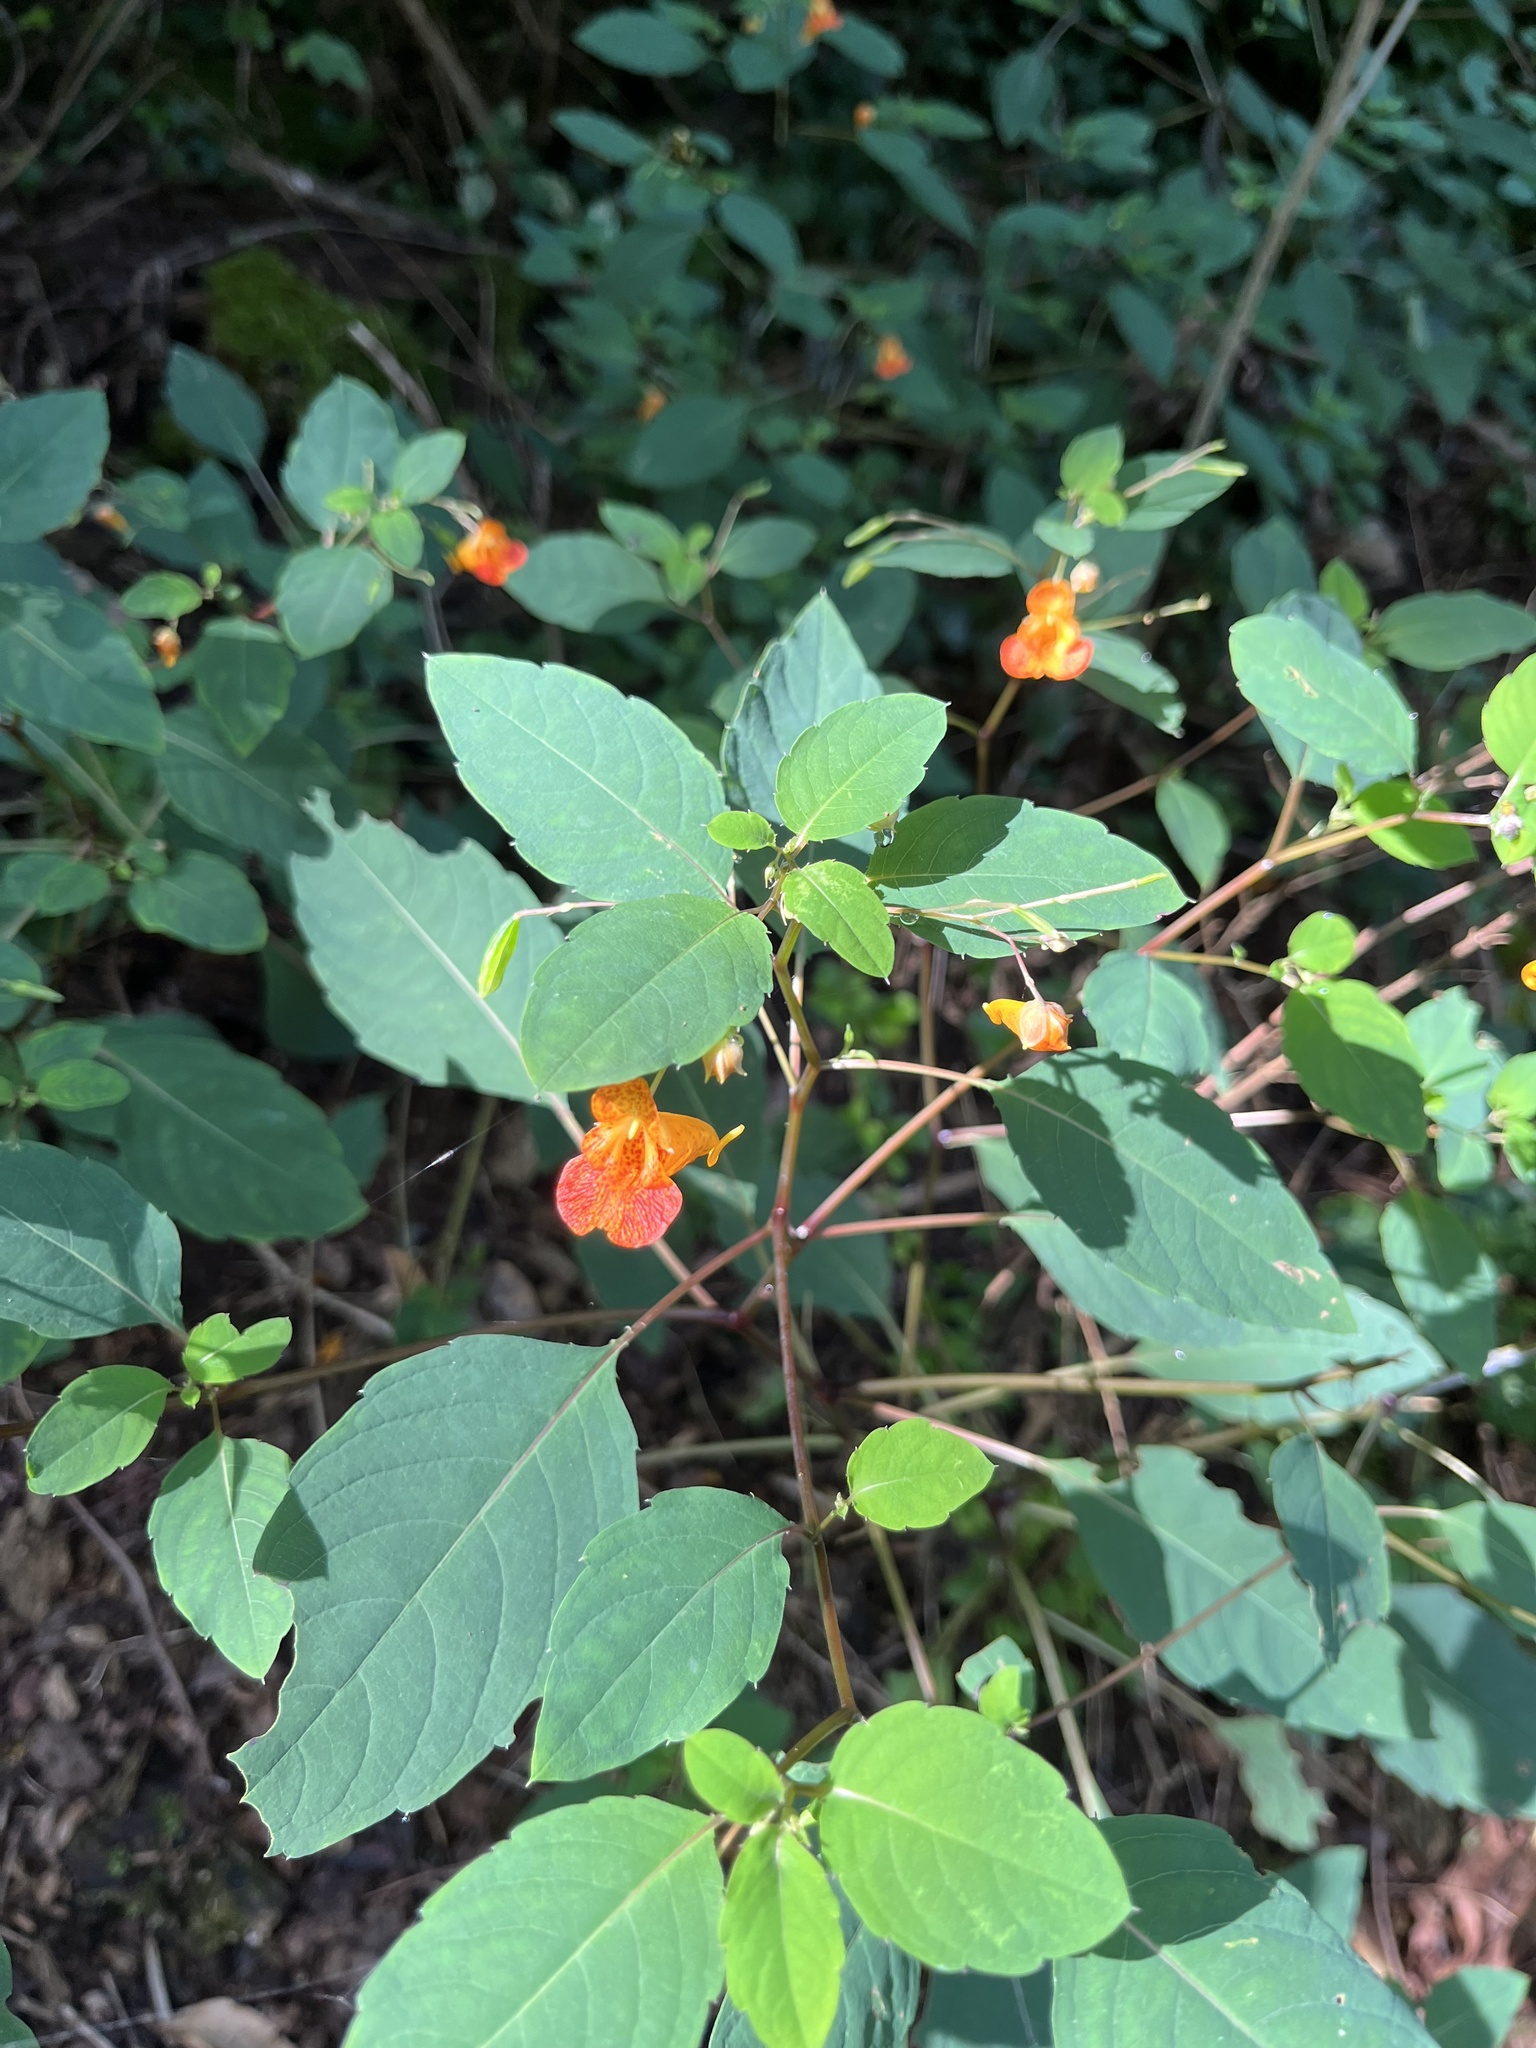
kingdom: Plantae
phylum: Tracheophyta
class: Magnoliopsida
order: Ericales
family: Balsaminaceae
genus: Impatiens
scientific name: Impatiens capensis
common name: Orange balsam
